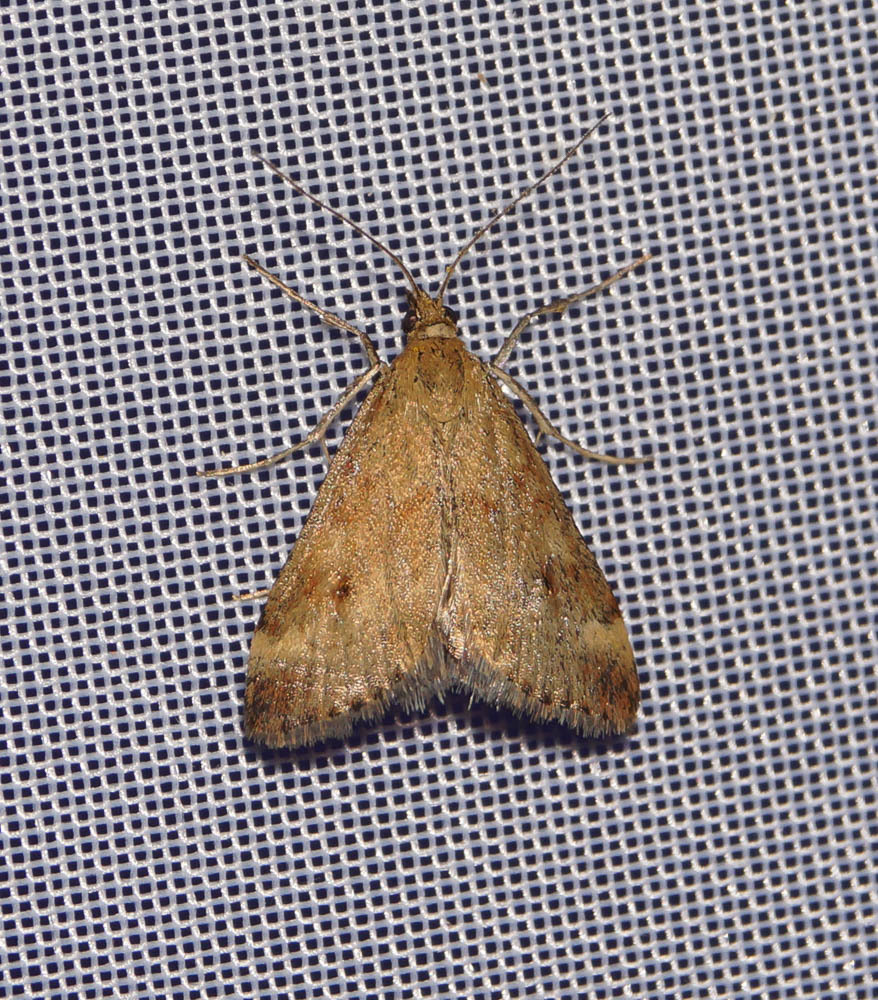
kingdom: Animalia
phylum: Arthropoda
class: Insecta
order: Lepidoptera
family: Crambidae
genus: Pyrausta
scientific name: Pyrausta despicata
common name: Straw-barred pearl
